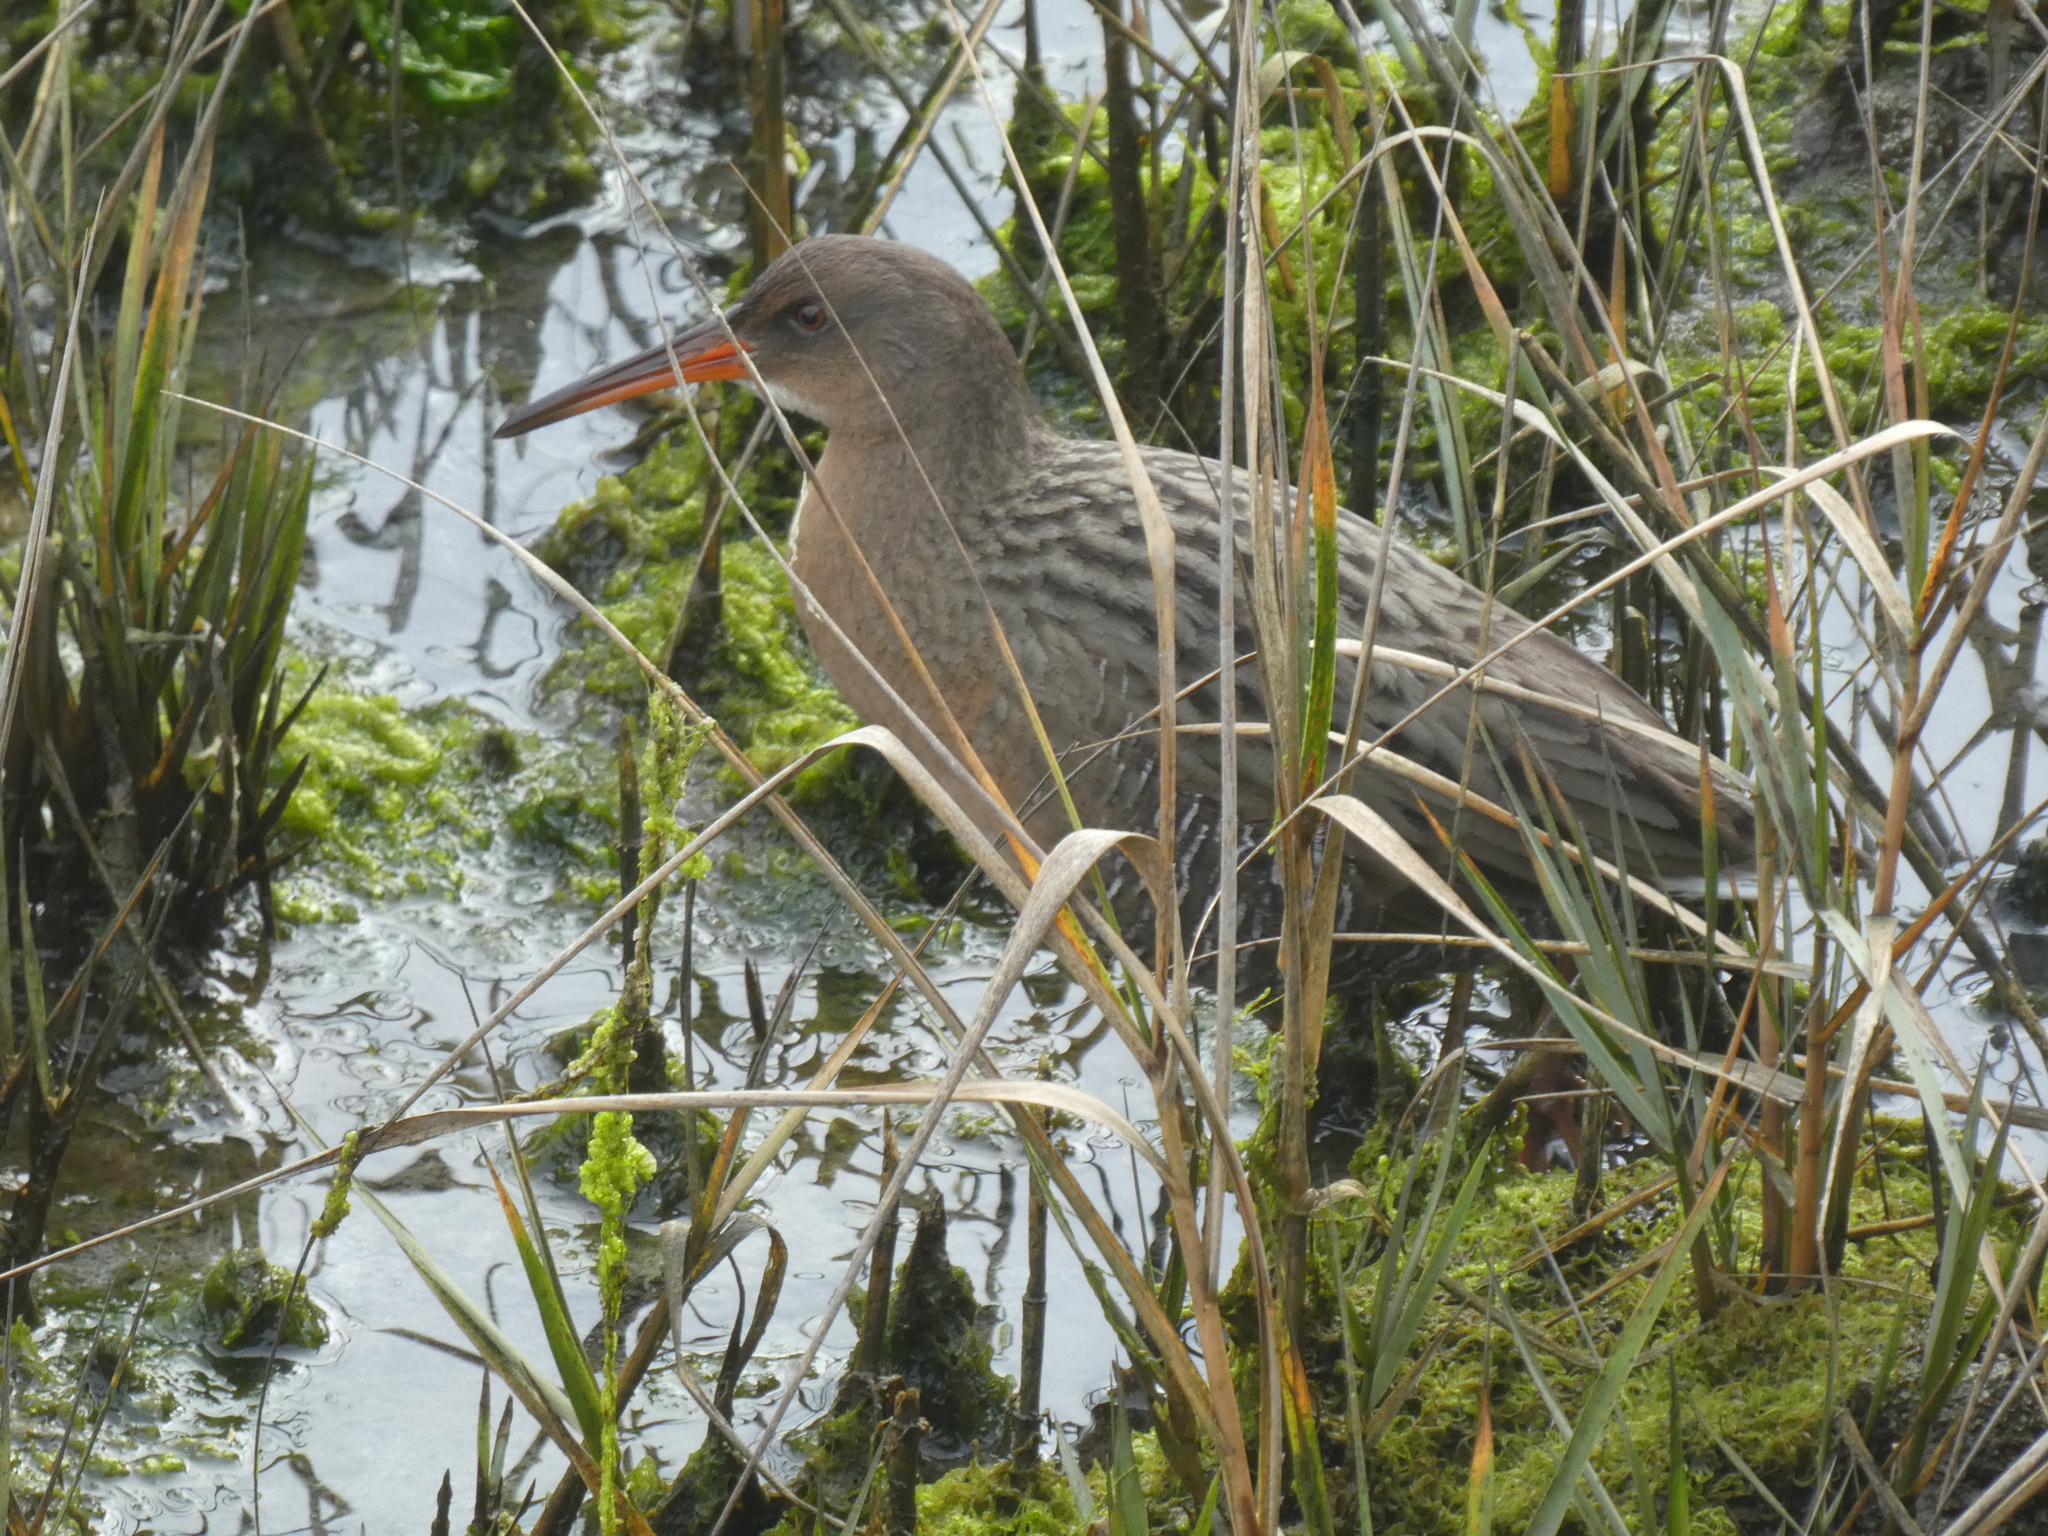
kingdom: Animalia
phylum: Chordata
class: Aves
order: Gruiformes
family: Rallidae
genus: Rallus
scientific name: Rallus obsoletus
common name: Ridgway's rail
